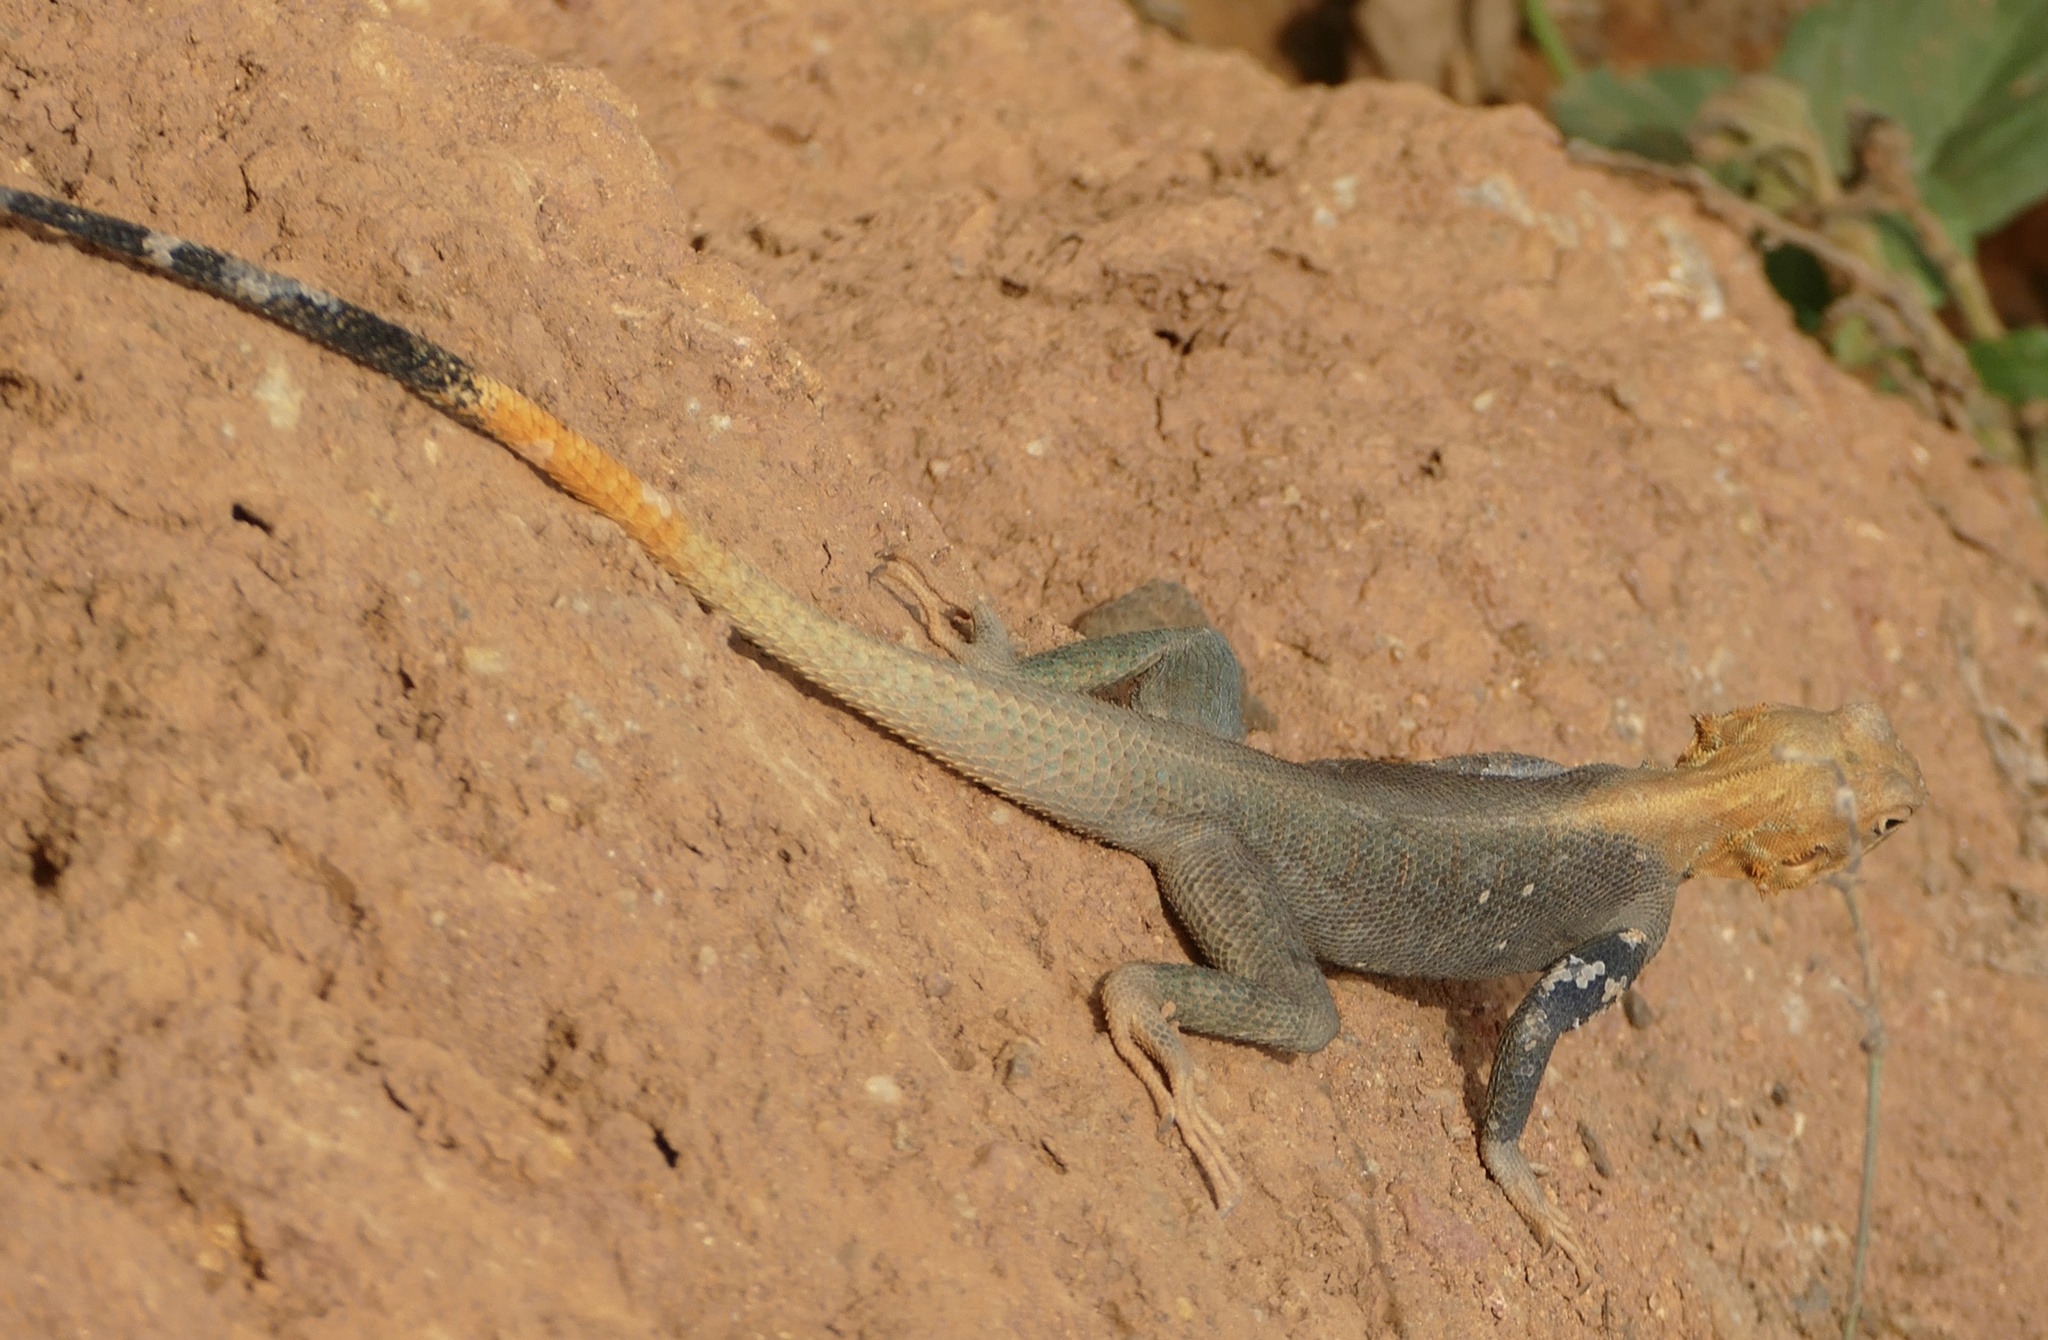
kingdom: Animalia
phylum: Chordata
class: Squamata
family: Agamidae
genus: Agama
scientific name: Agama picticauda
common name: Red-headed agama
